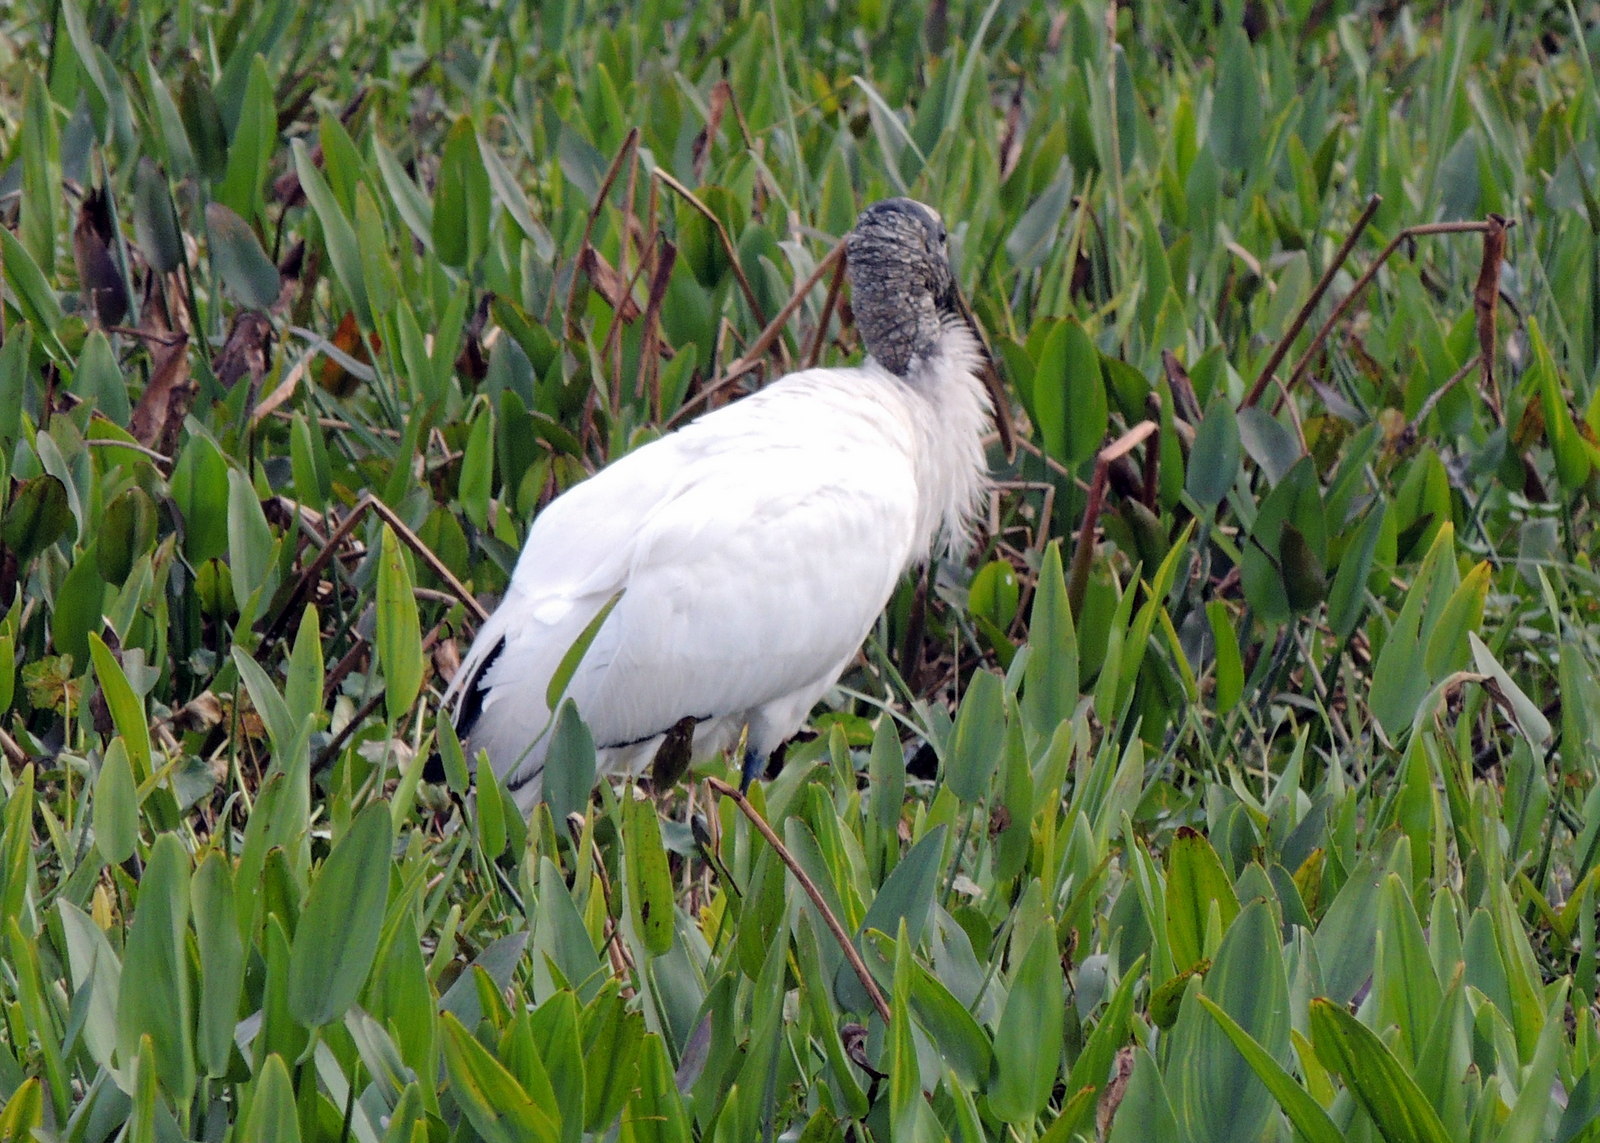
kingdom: Animalia
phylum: Chordata
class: Aves
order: Ciconiiformes
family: Ciconiidae
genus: Mycteria
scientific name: Mycteria americana
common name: Wood stork
